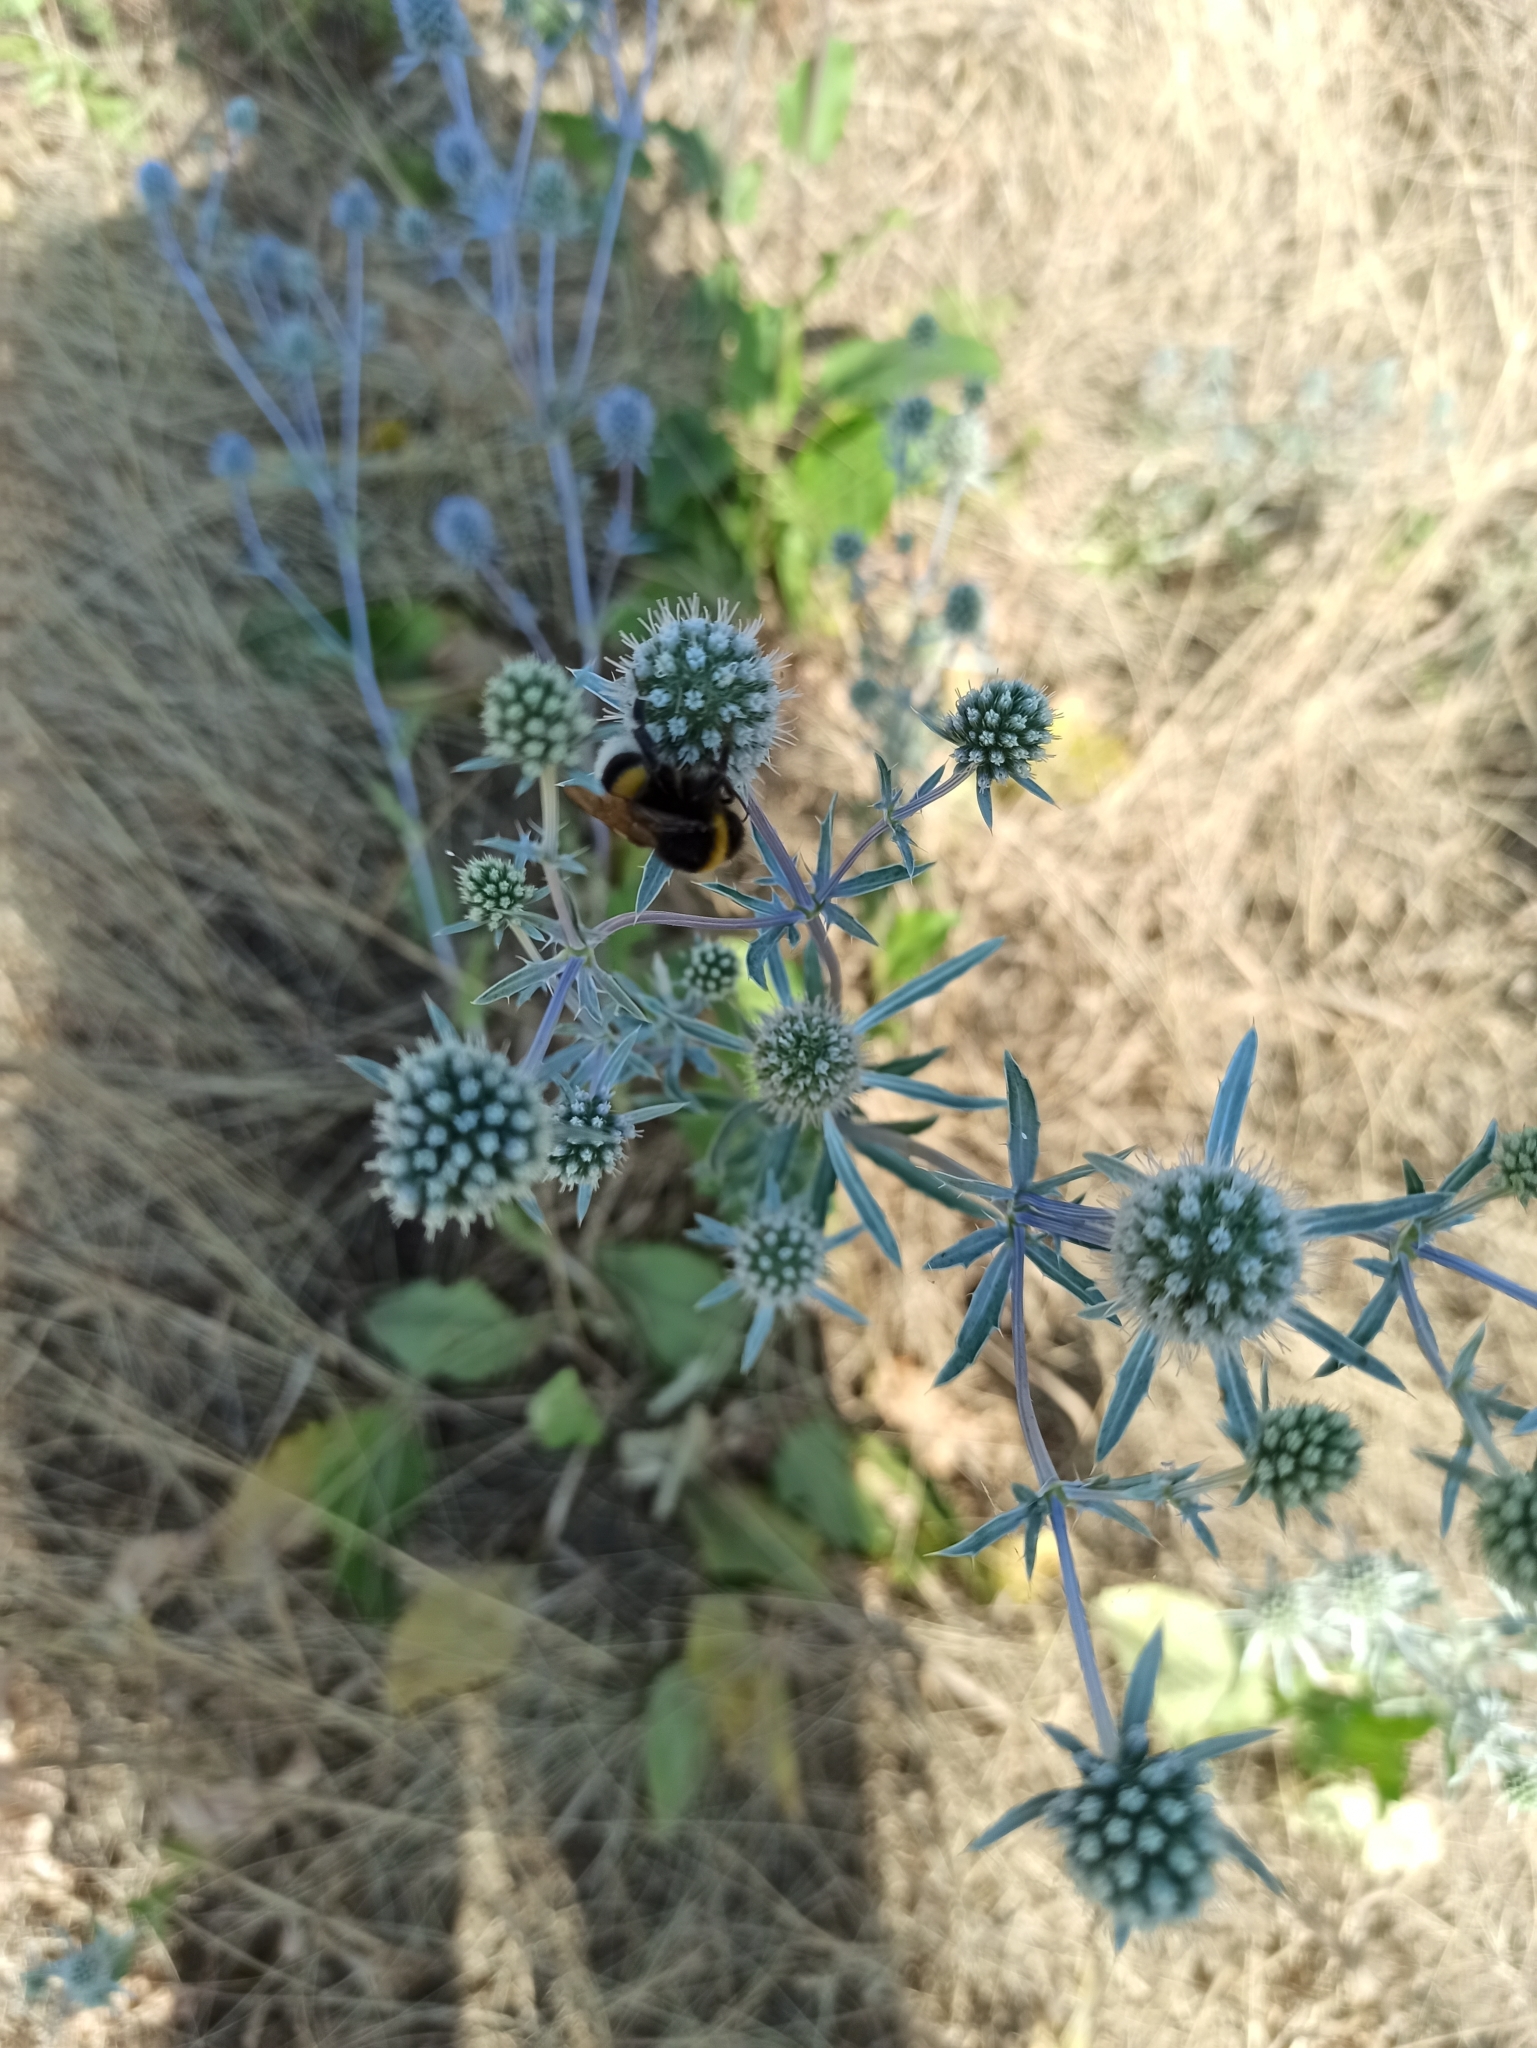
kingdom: Plantae
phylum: Tracheophyta
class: Magnoliopsida
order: Apiales
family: Apiaceae
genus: Eryngium
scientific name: Eryngium planum
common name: Blue eryngo
